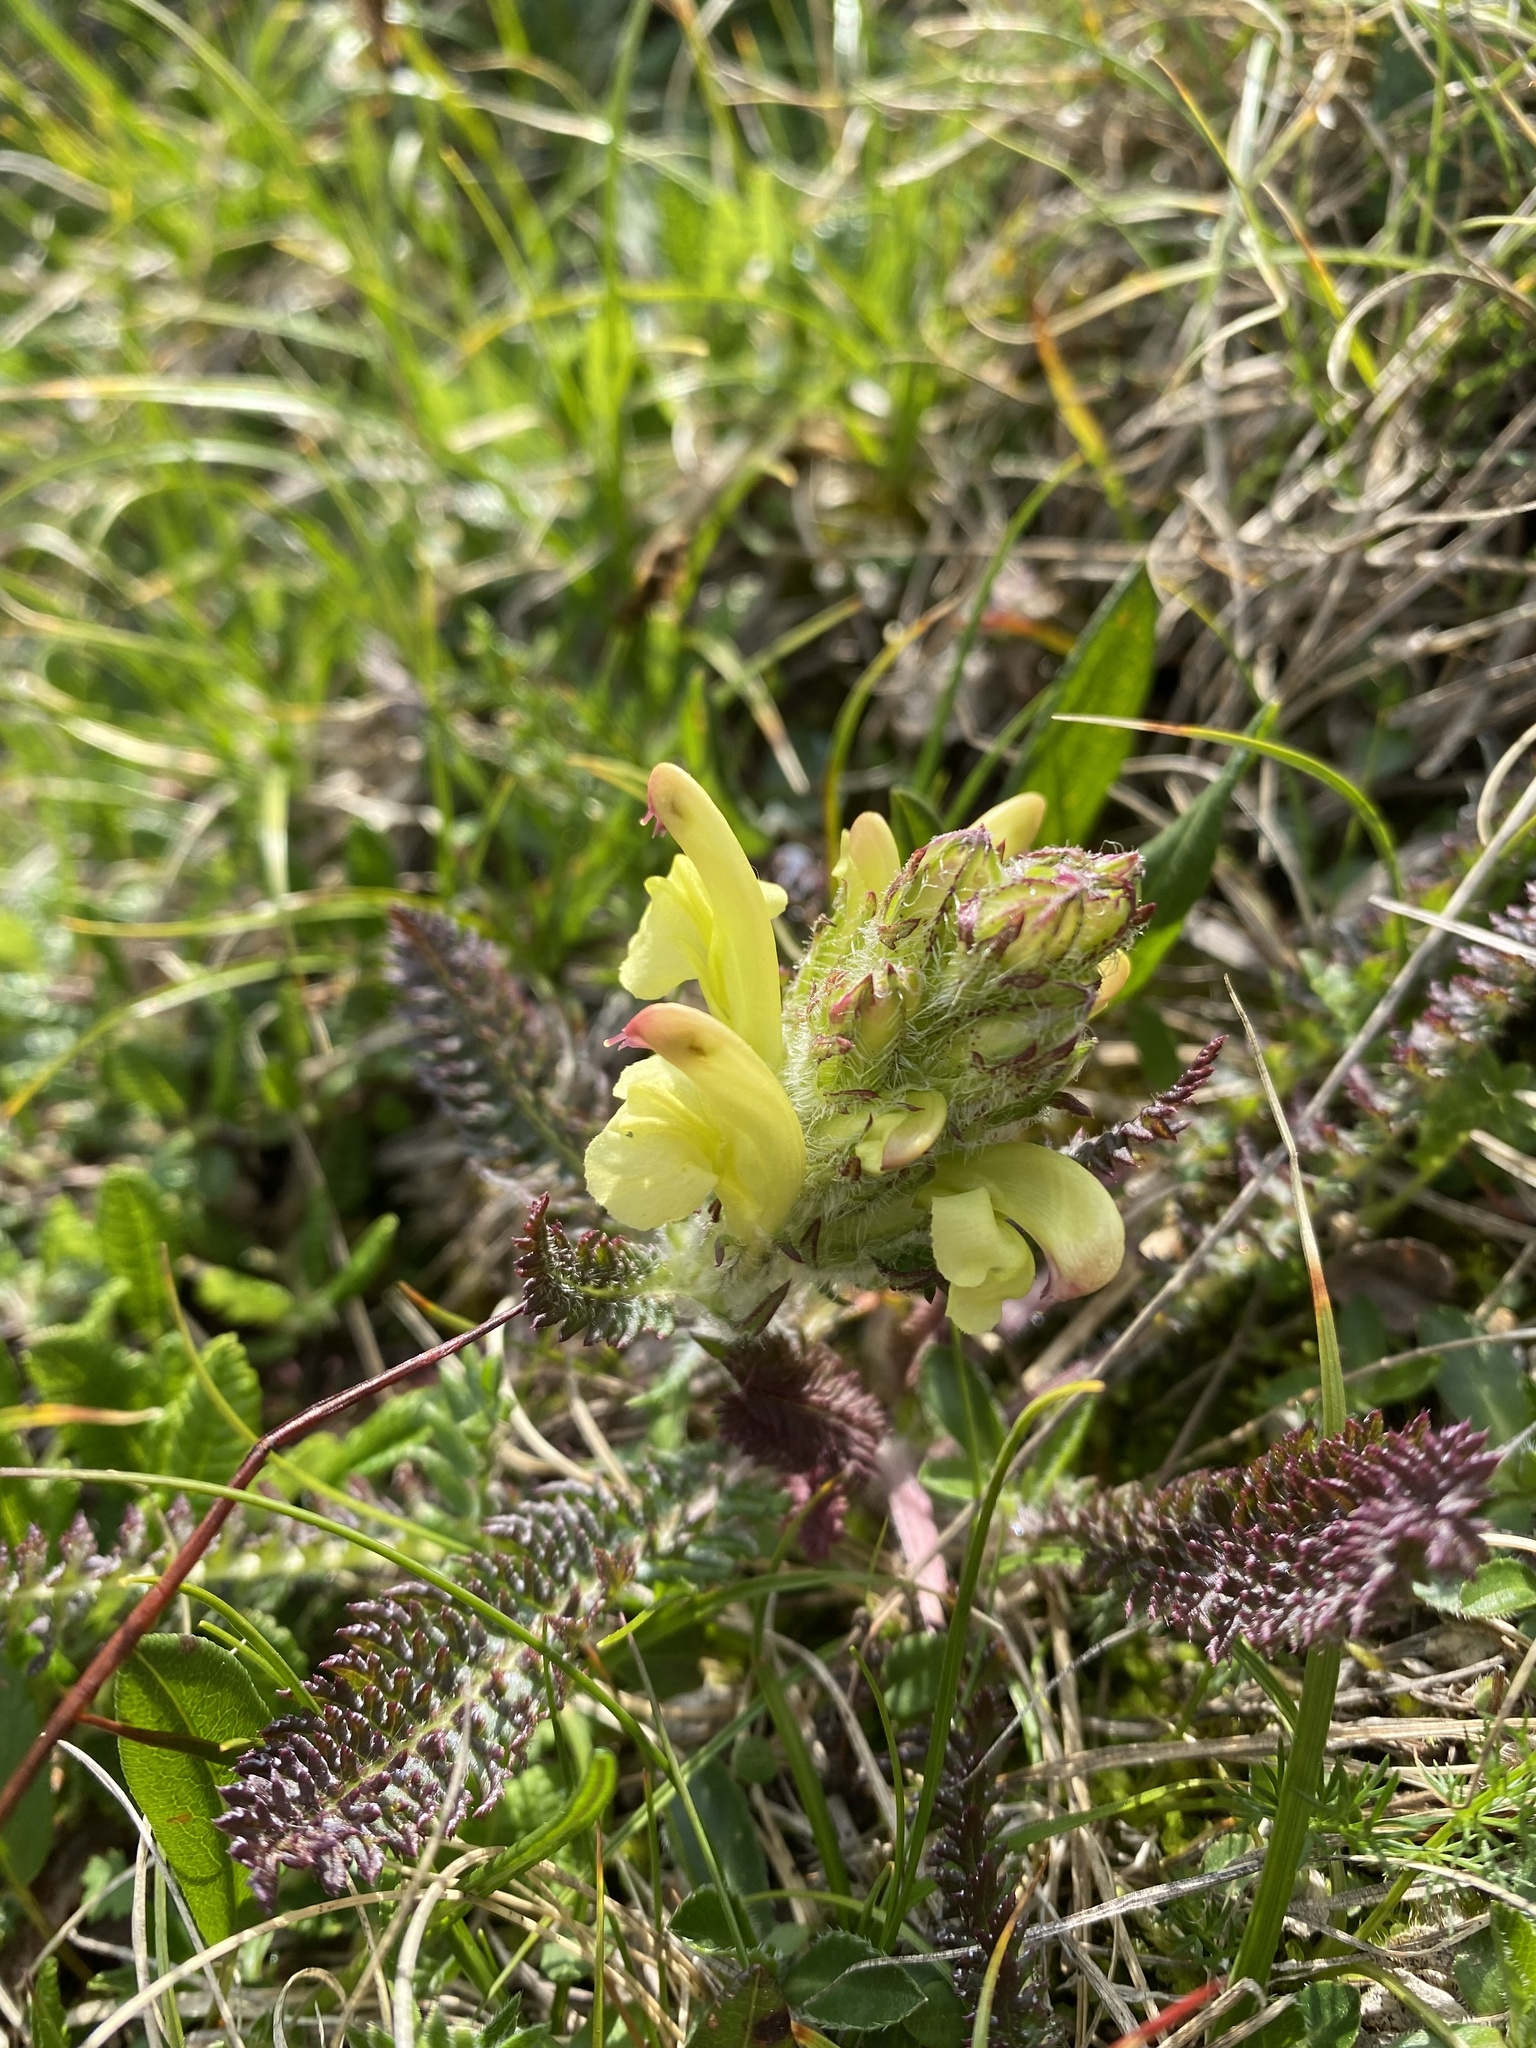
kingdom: Plantae
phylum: Tracheophyta
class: Magnoliopsida
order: Lamiales
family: Orobanchaceae
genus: Pedicularis
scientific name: Pedicularis chroorrhyncha
